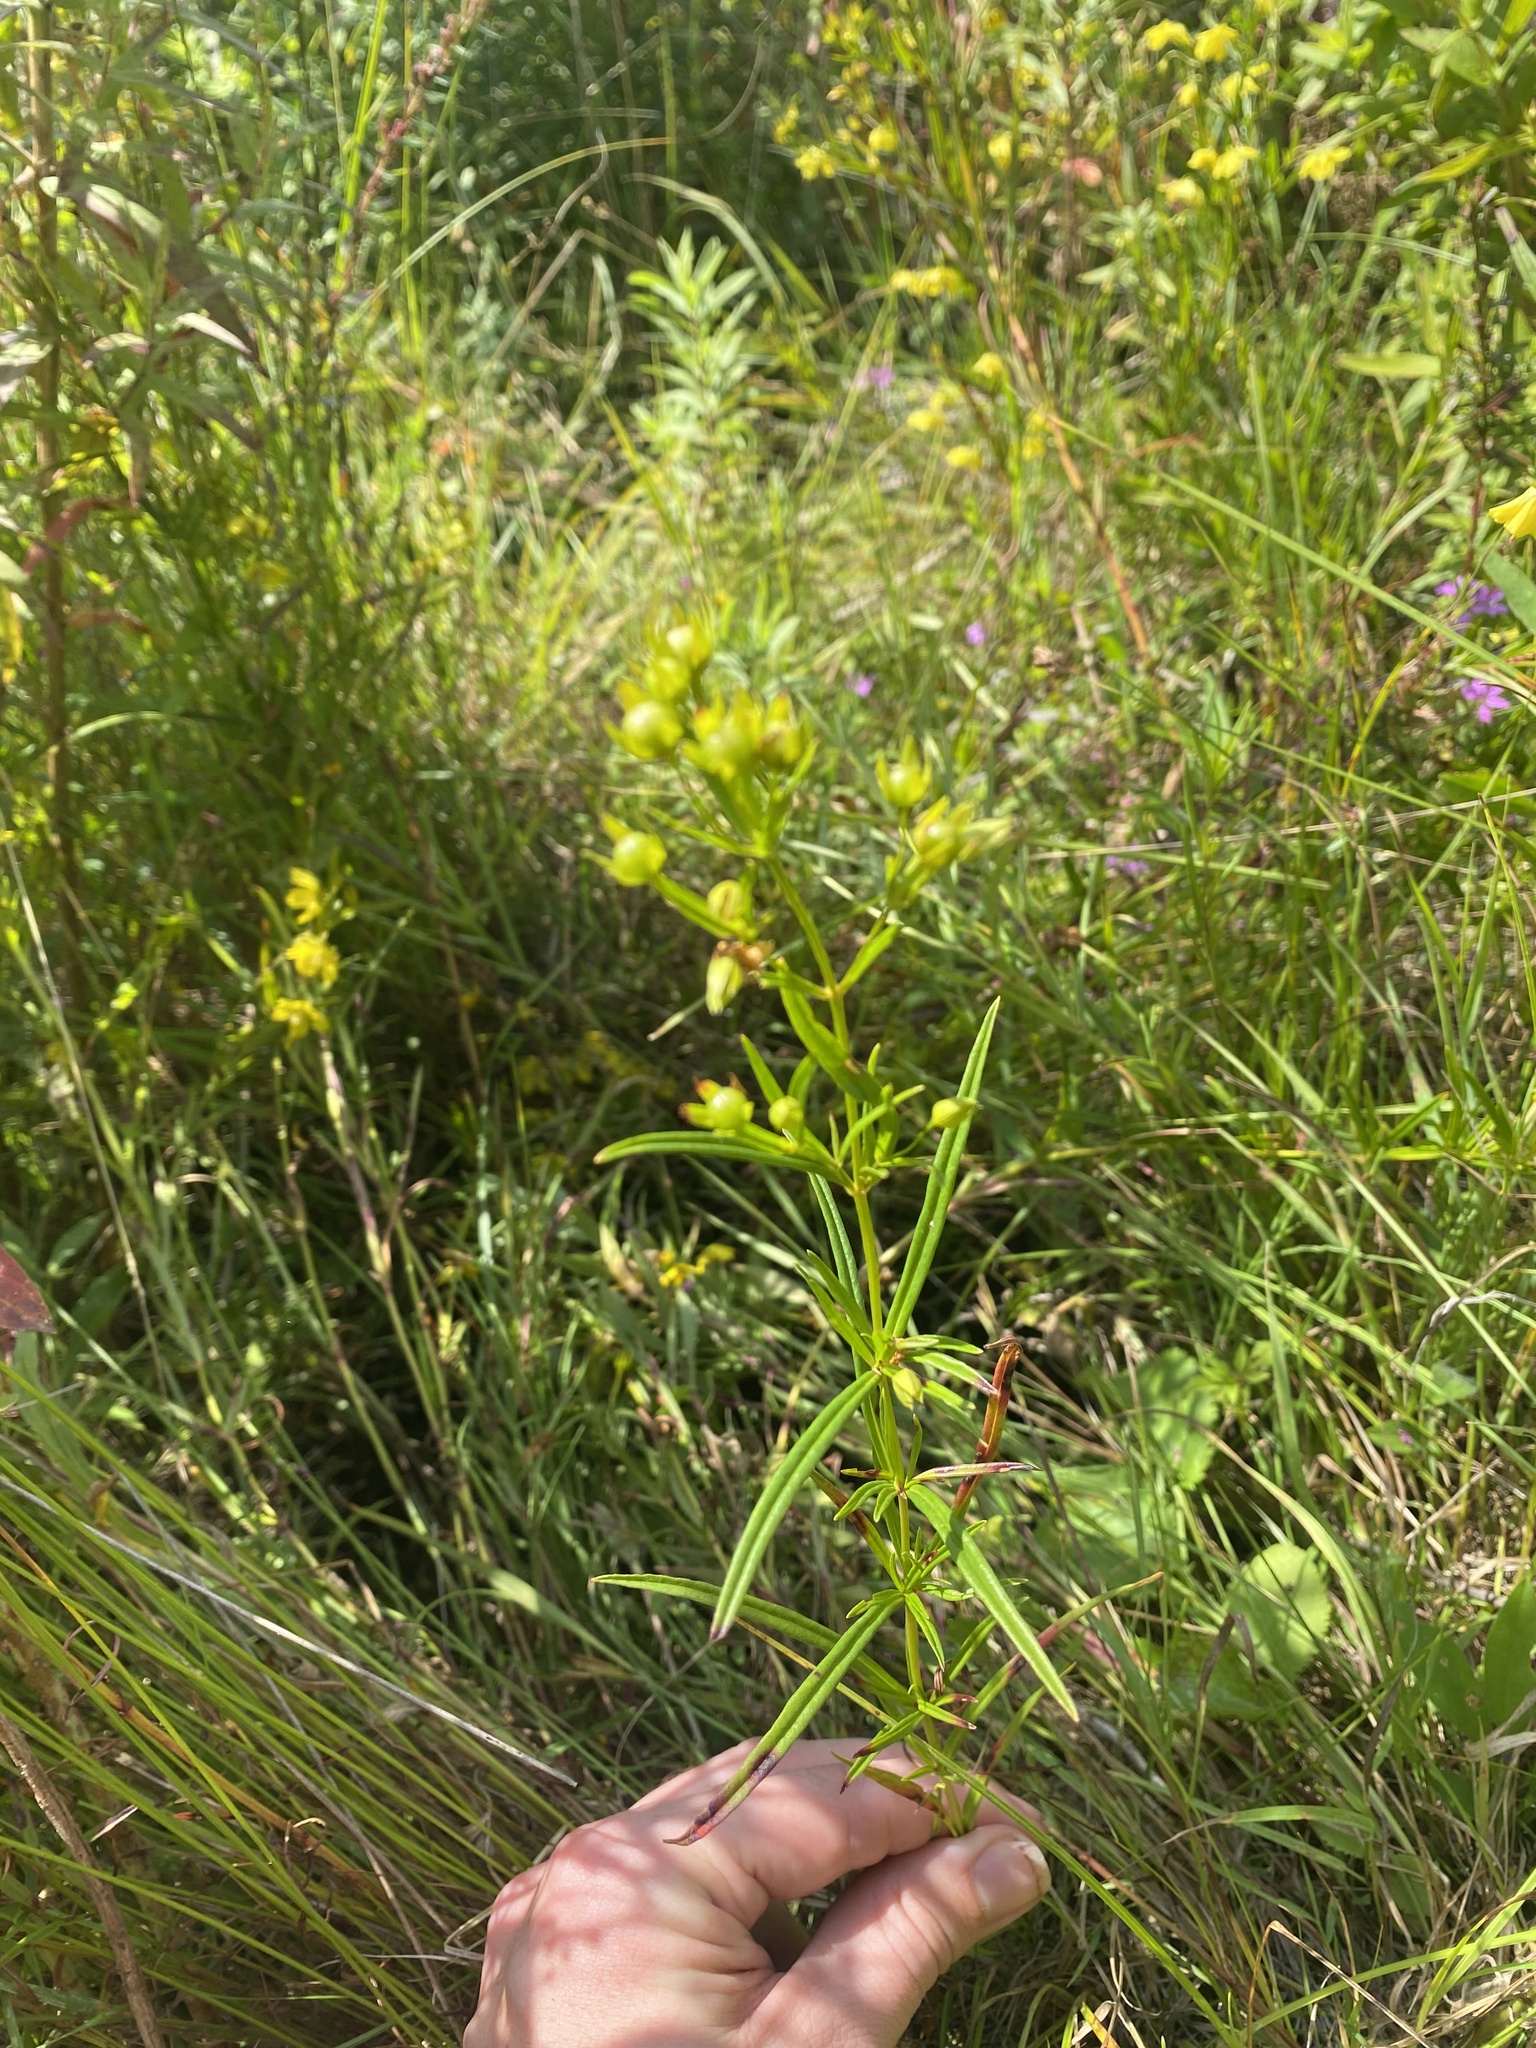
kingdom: Plantae
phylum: Tracheophyta
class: Magnoliopsida
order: Ericales
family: Primulaceae
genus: Lysimachia
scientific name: Lysimachia quadriflora
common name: Four-flowered loosestrife
